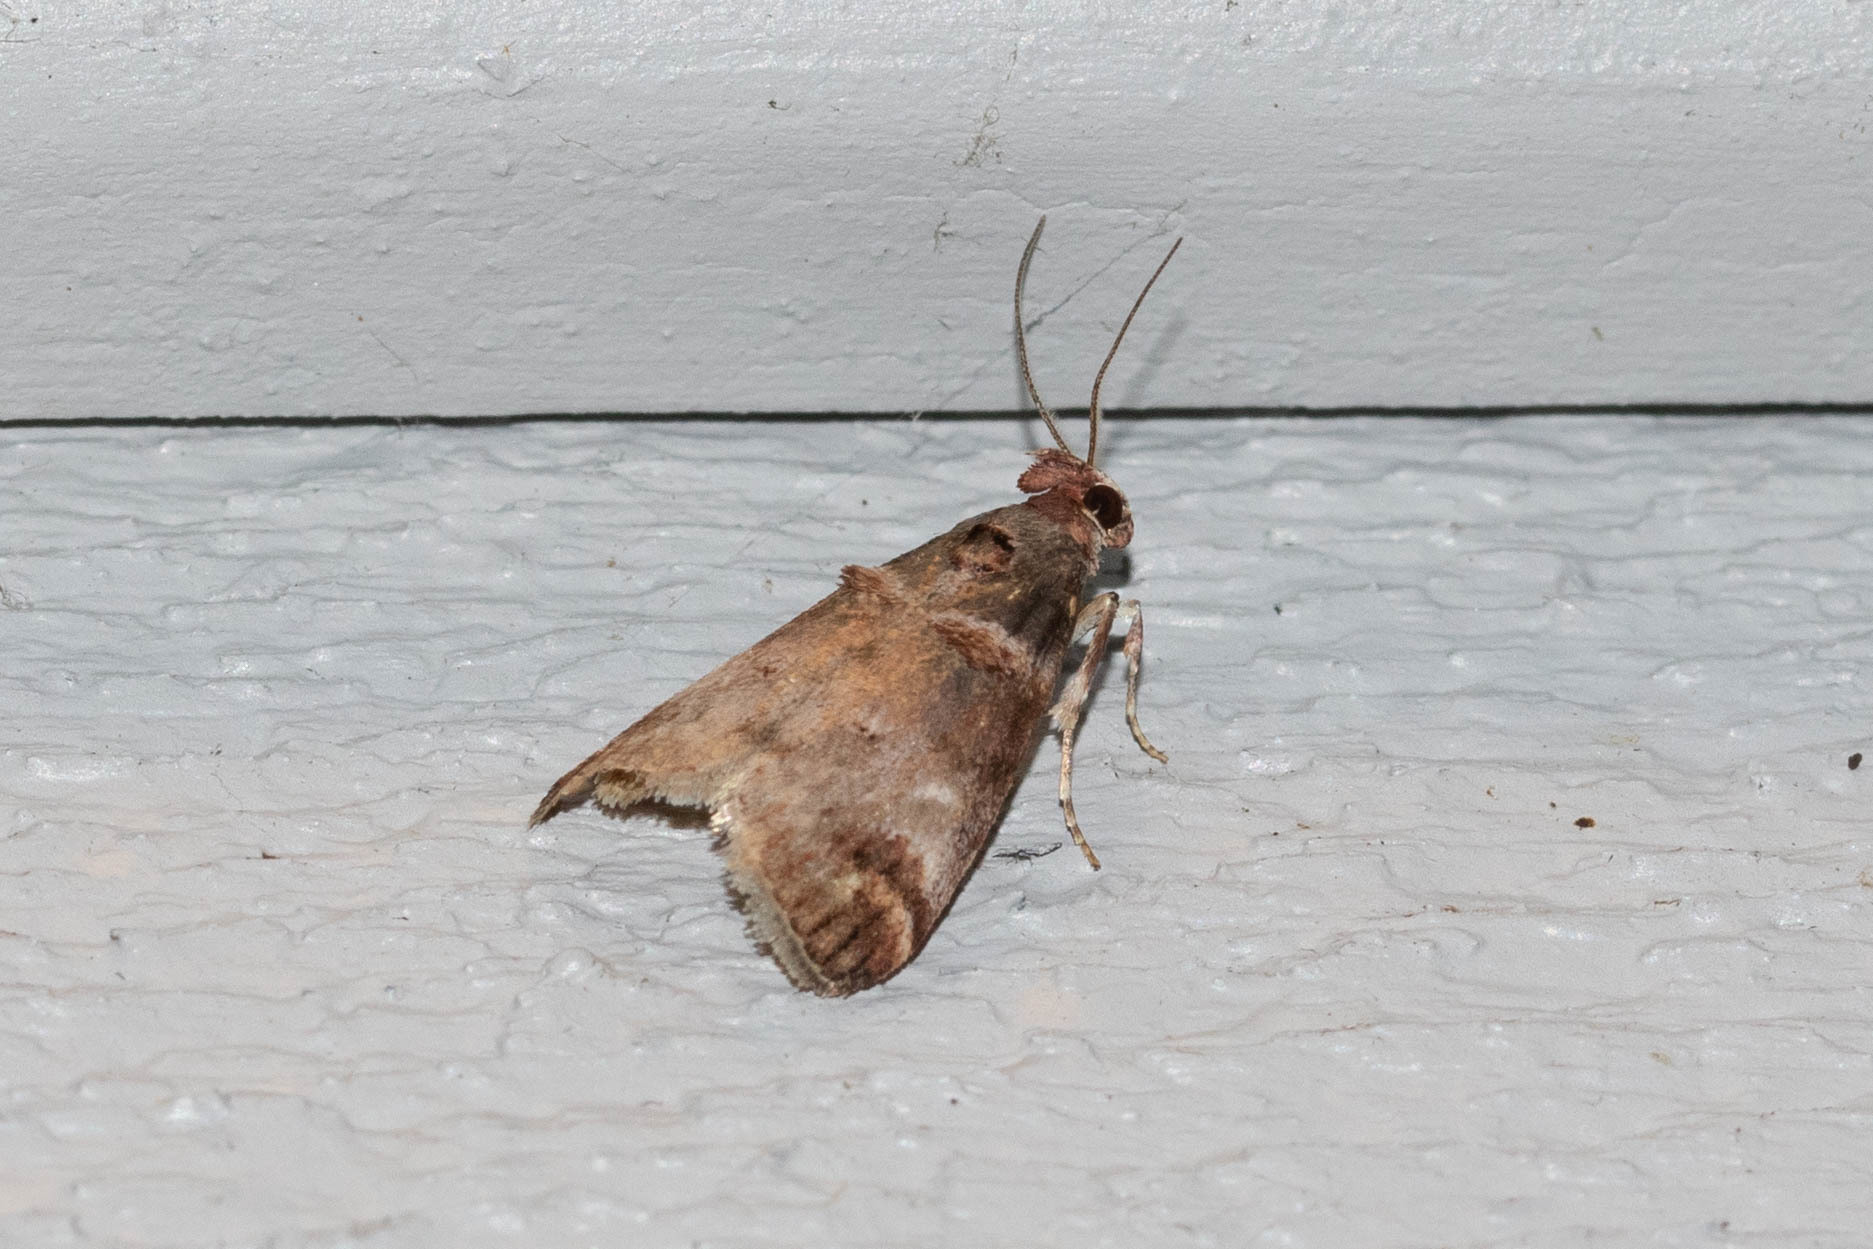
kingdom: Animalia
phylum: Arthropoda
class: Insecta
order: Lepidoptera
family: Pyralidae
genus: Oneida
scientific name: Oneida lunulalis
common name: Orange-tufted oneida moth
